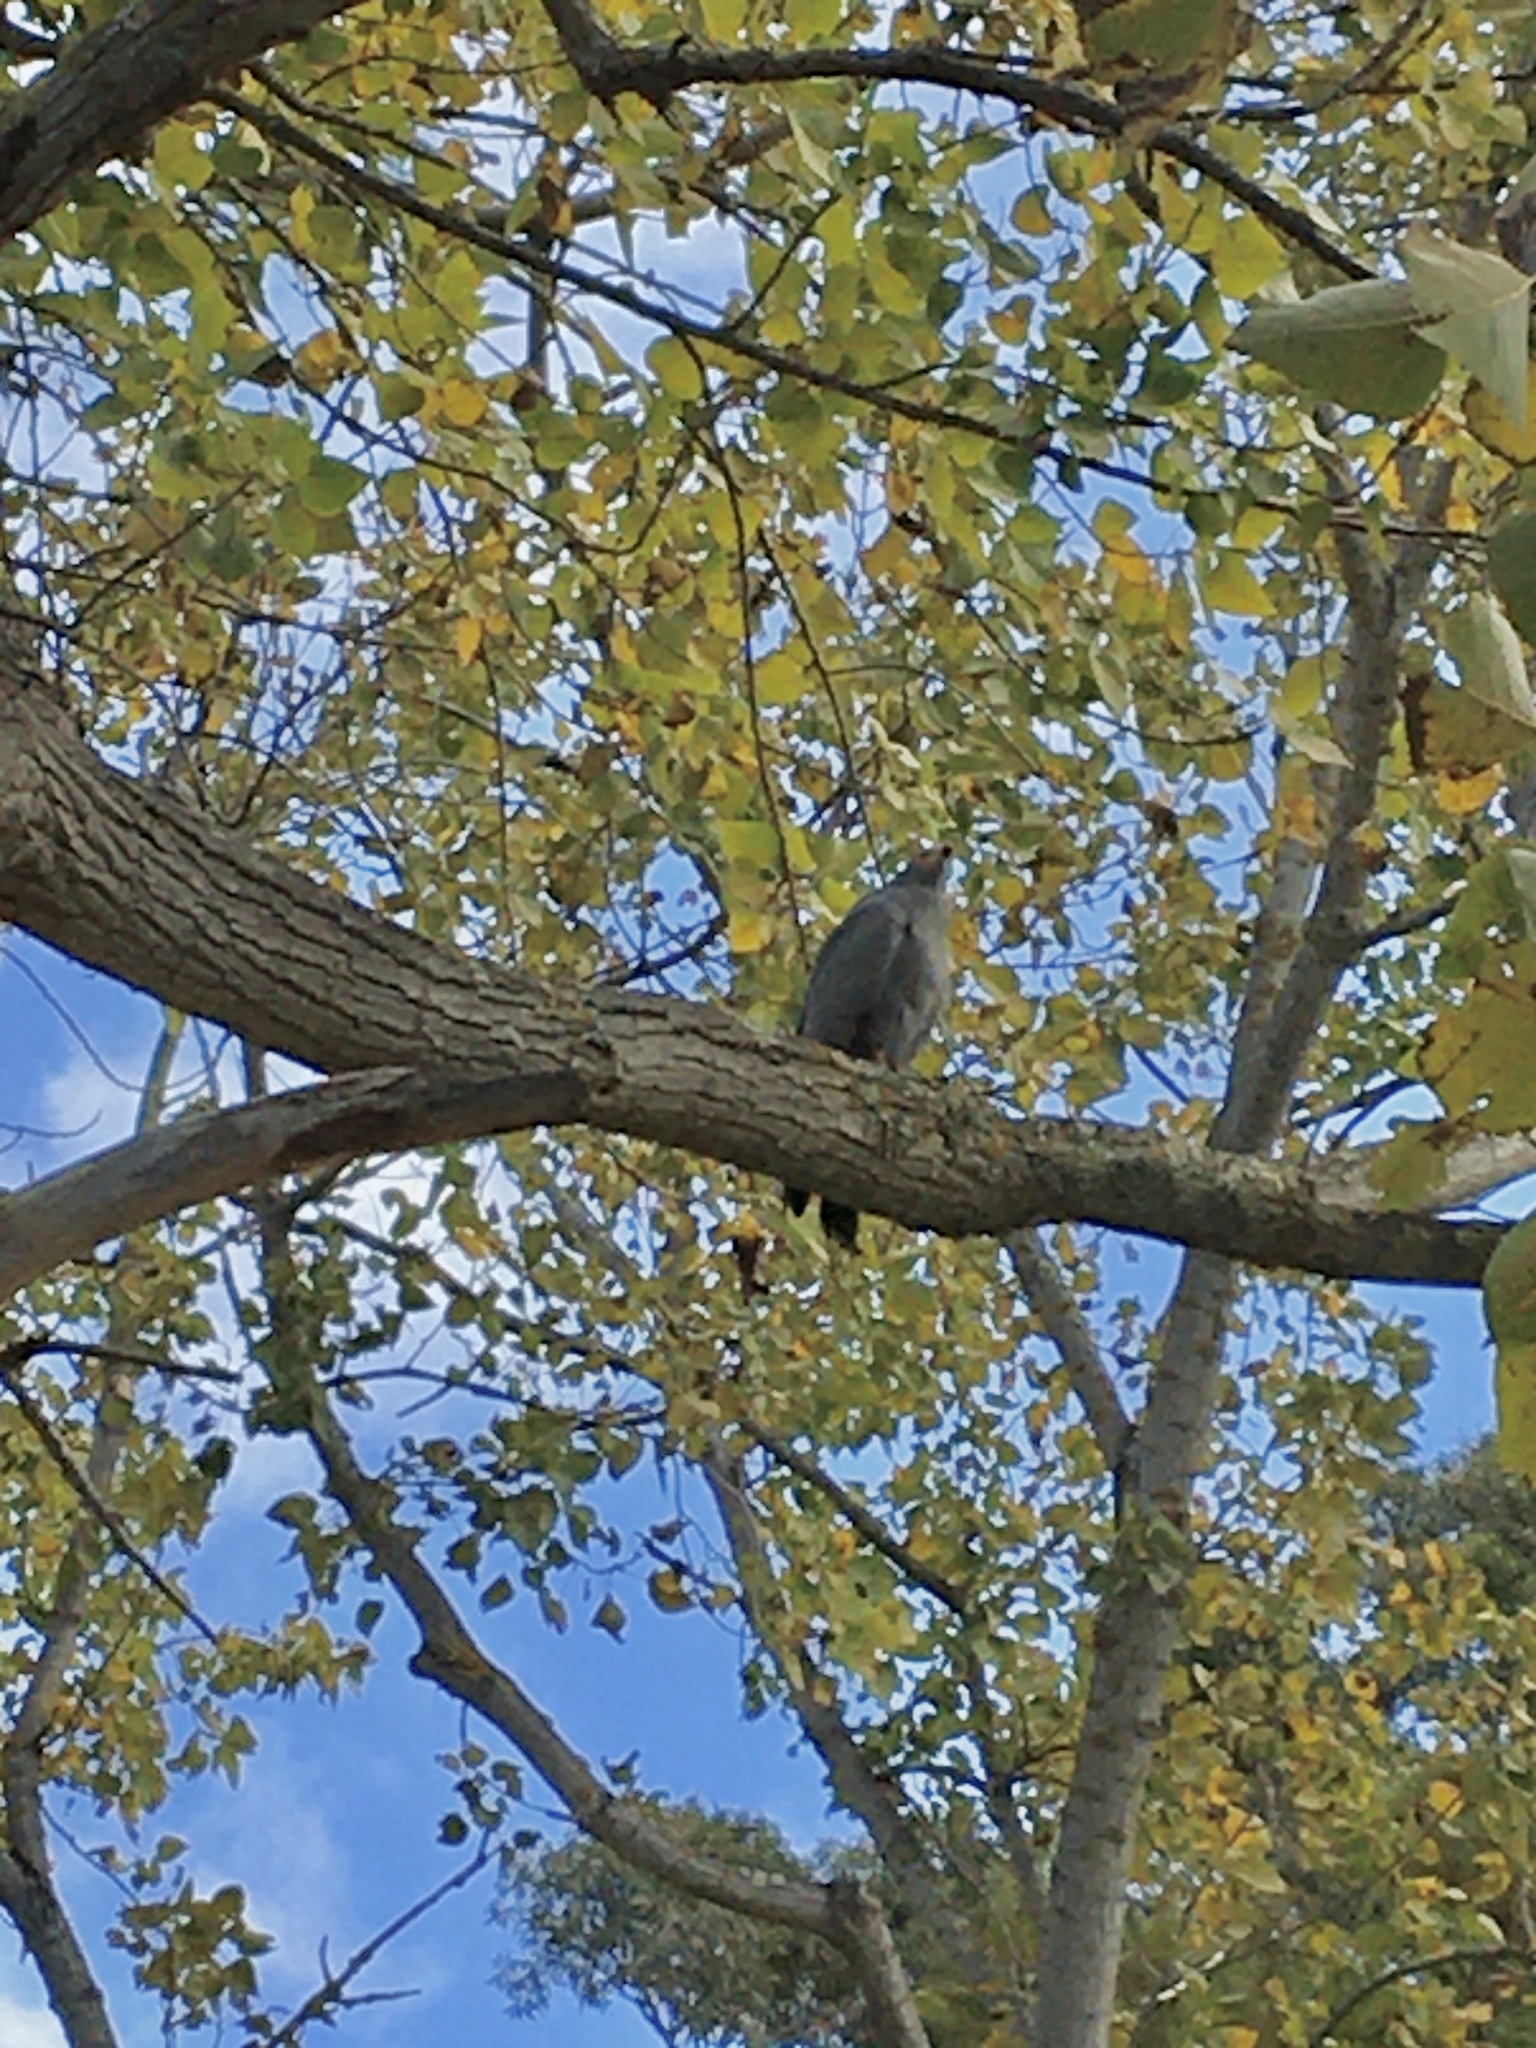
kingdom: Animalia
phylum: Chordata
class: Aves
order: Accipitriformes
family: Accipitridae
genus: Polyboroides
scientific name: Polyboroides typus
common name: African harrier-hawk
